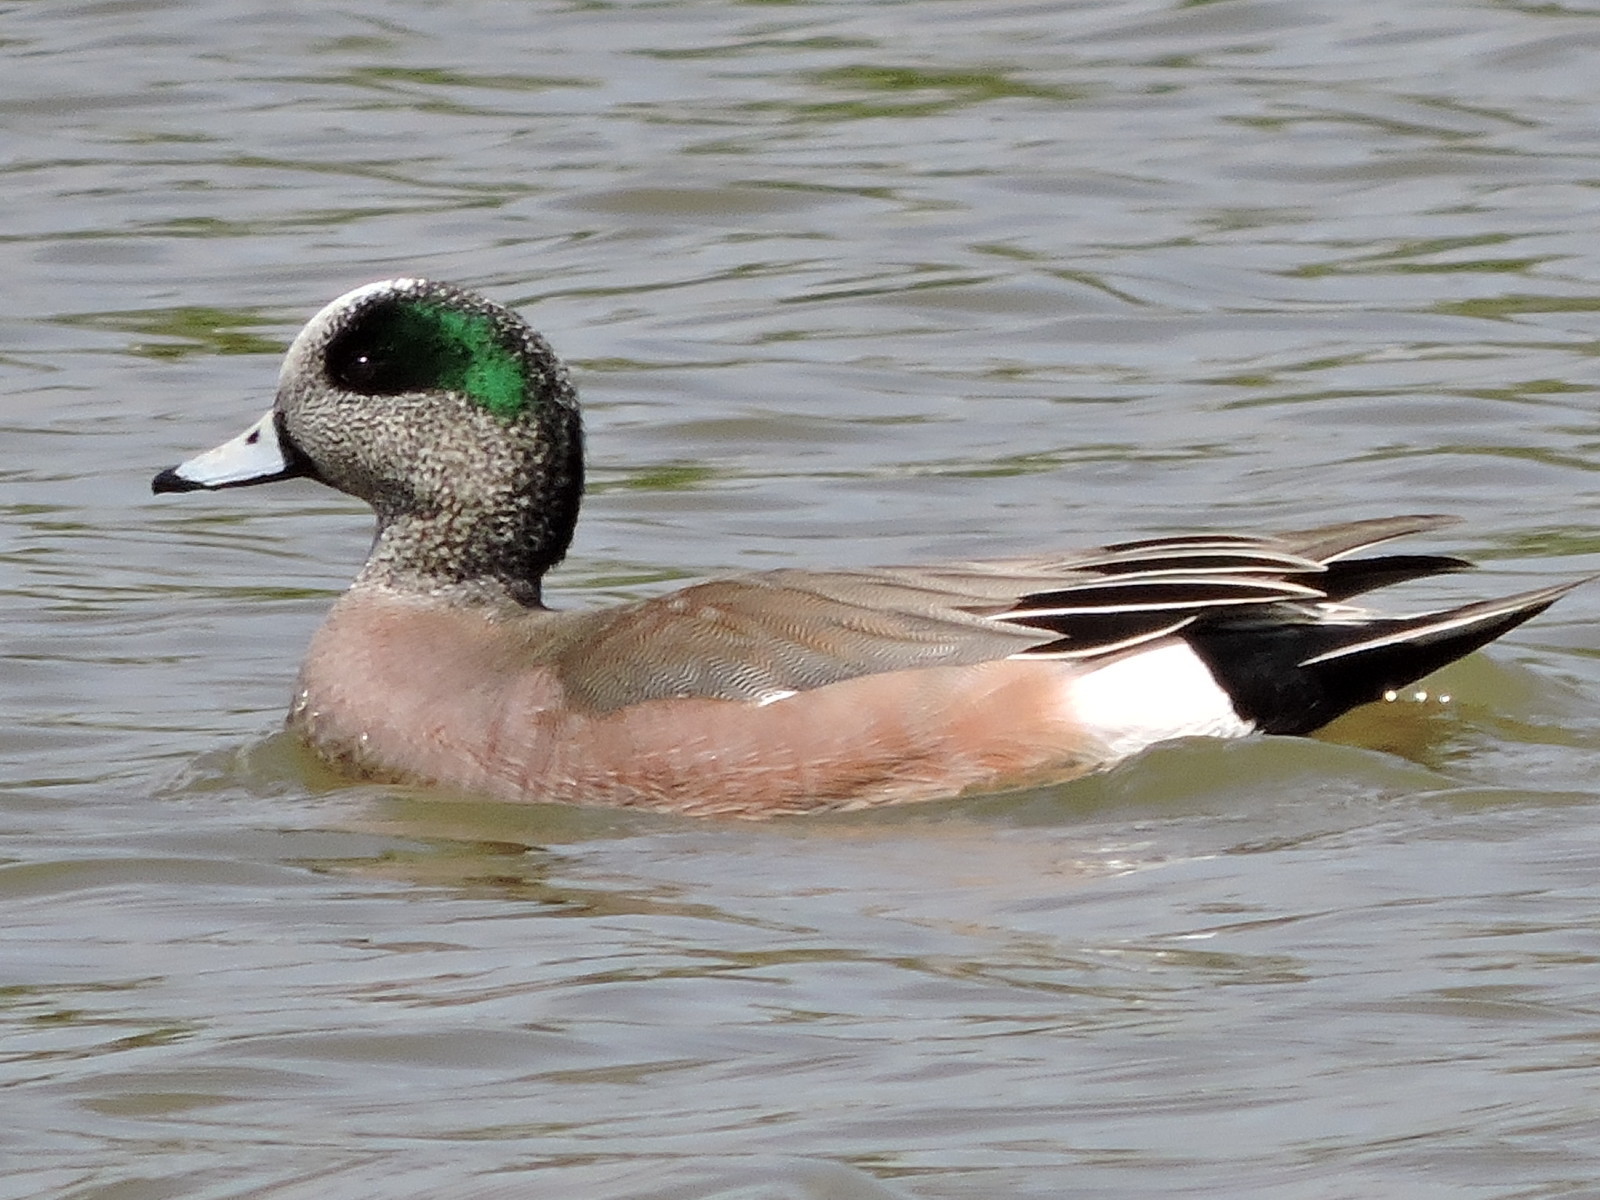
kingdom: Animalia
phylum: Chordata
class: Aves
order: Anseriformes
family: Anatidae
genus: Mareca
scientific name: Mareca americana
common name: American wigeon
